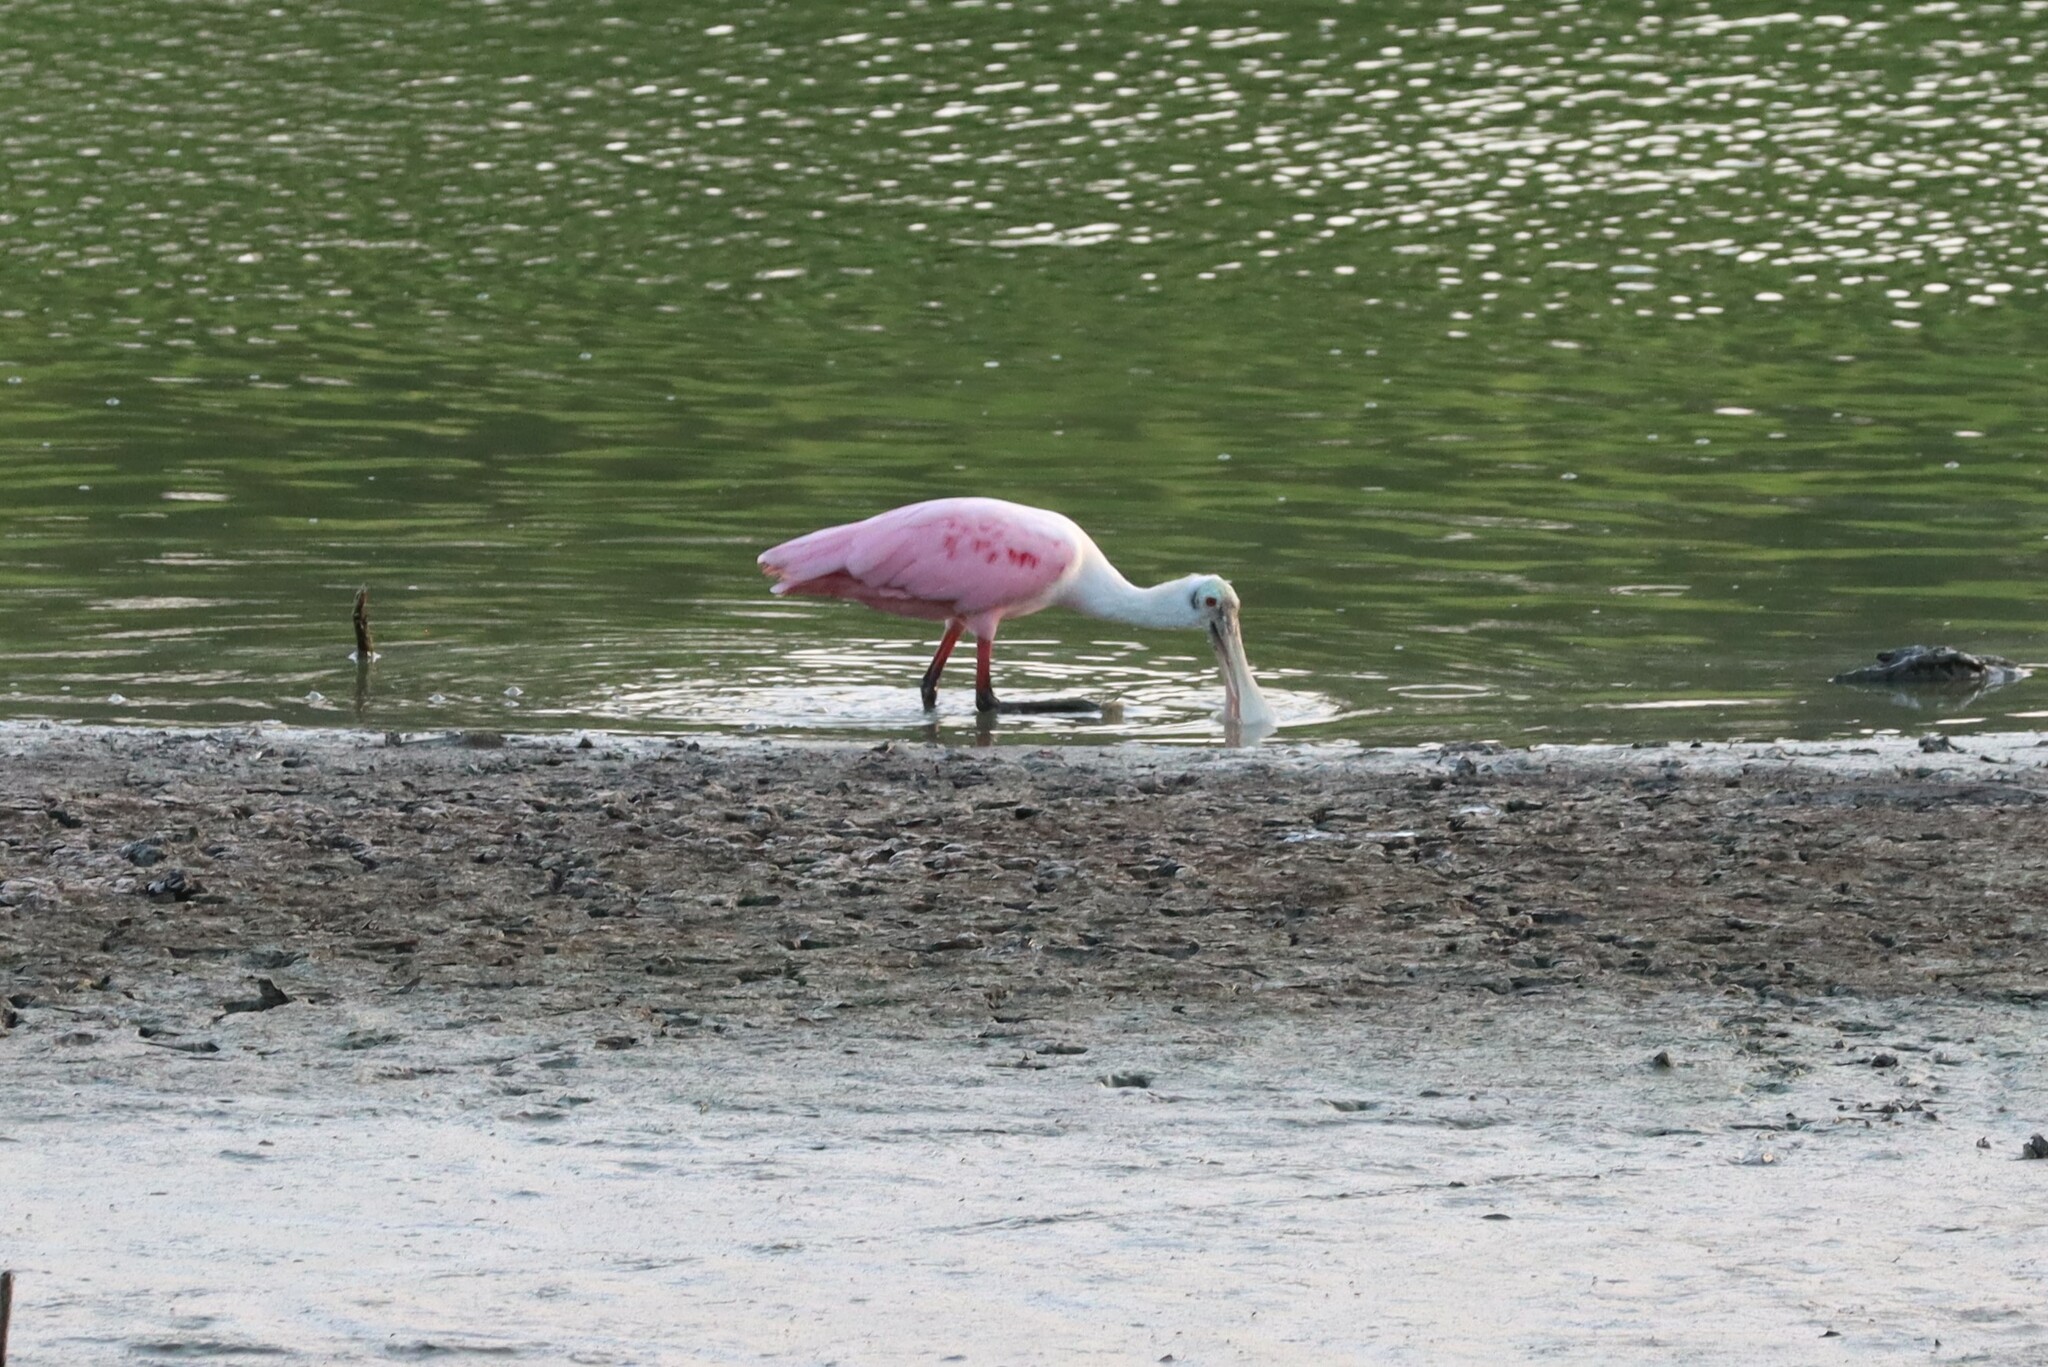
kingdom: Animalia
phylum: Chordata
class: Aves
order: Pelecaniformes
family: Threskiornithidae
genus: Platalea
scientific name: Platalea ajaja
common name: Roseate spoonbill
